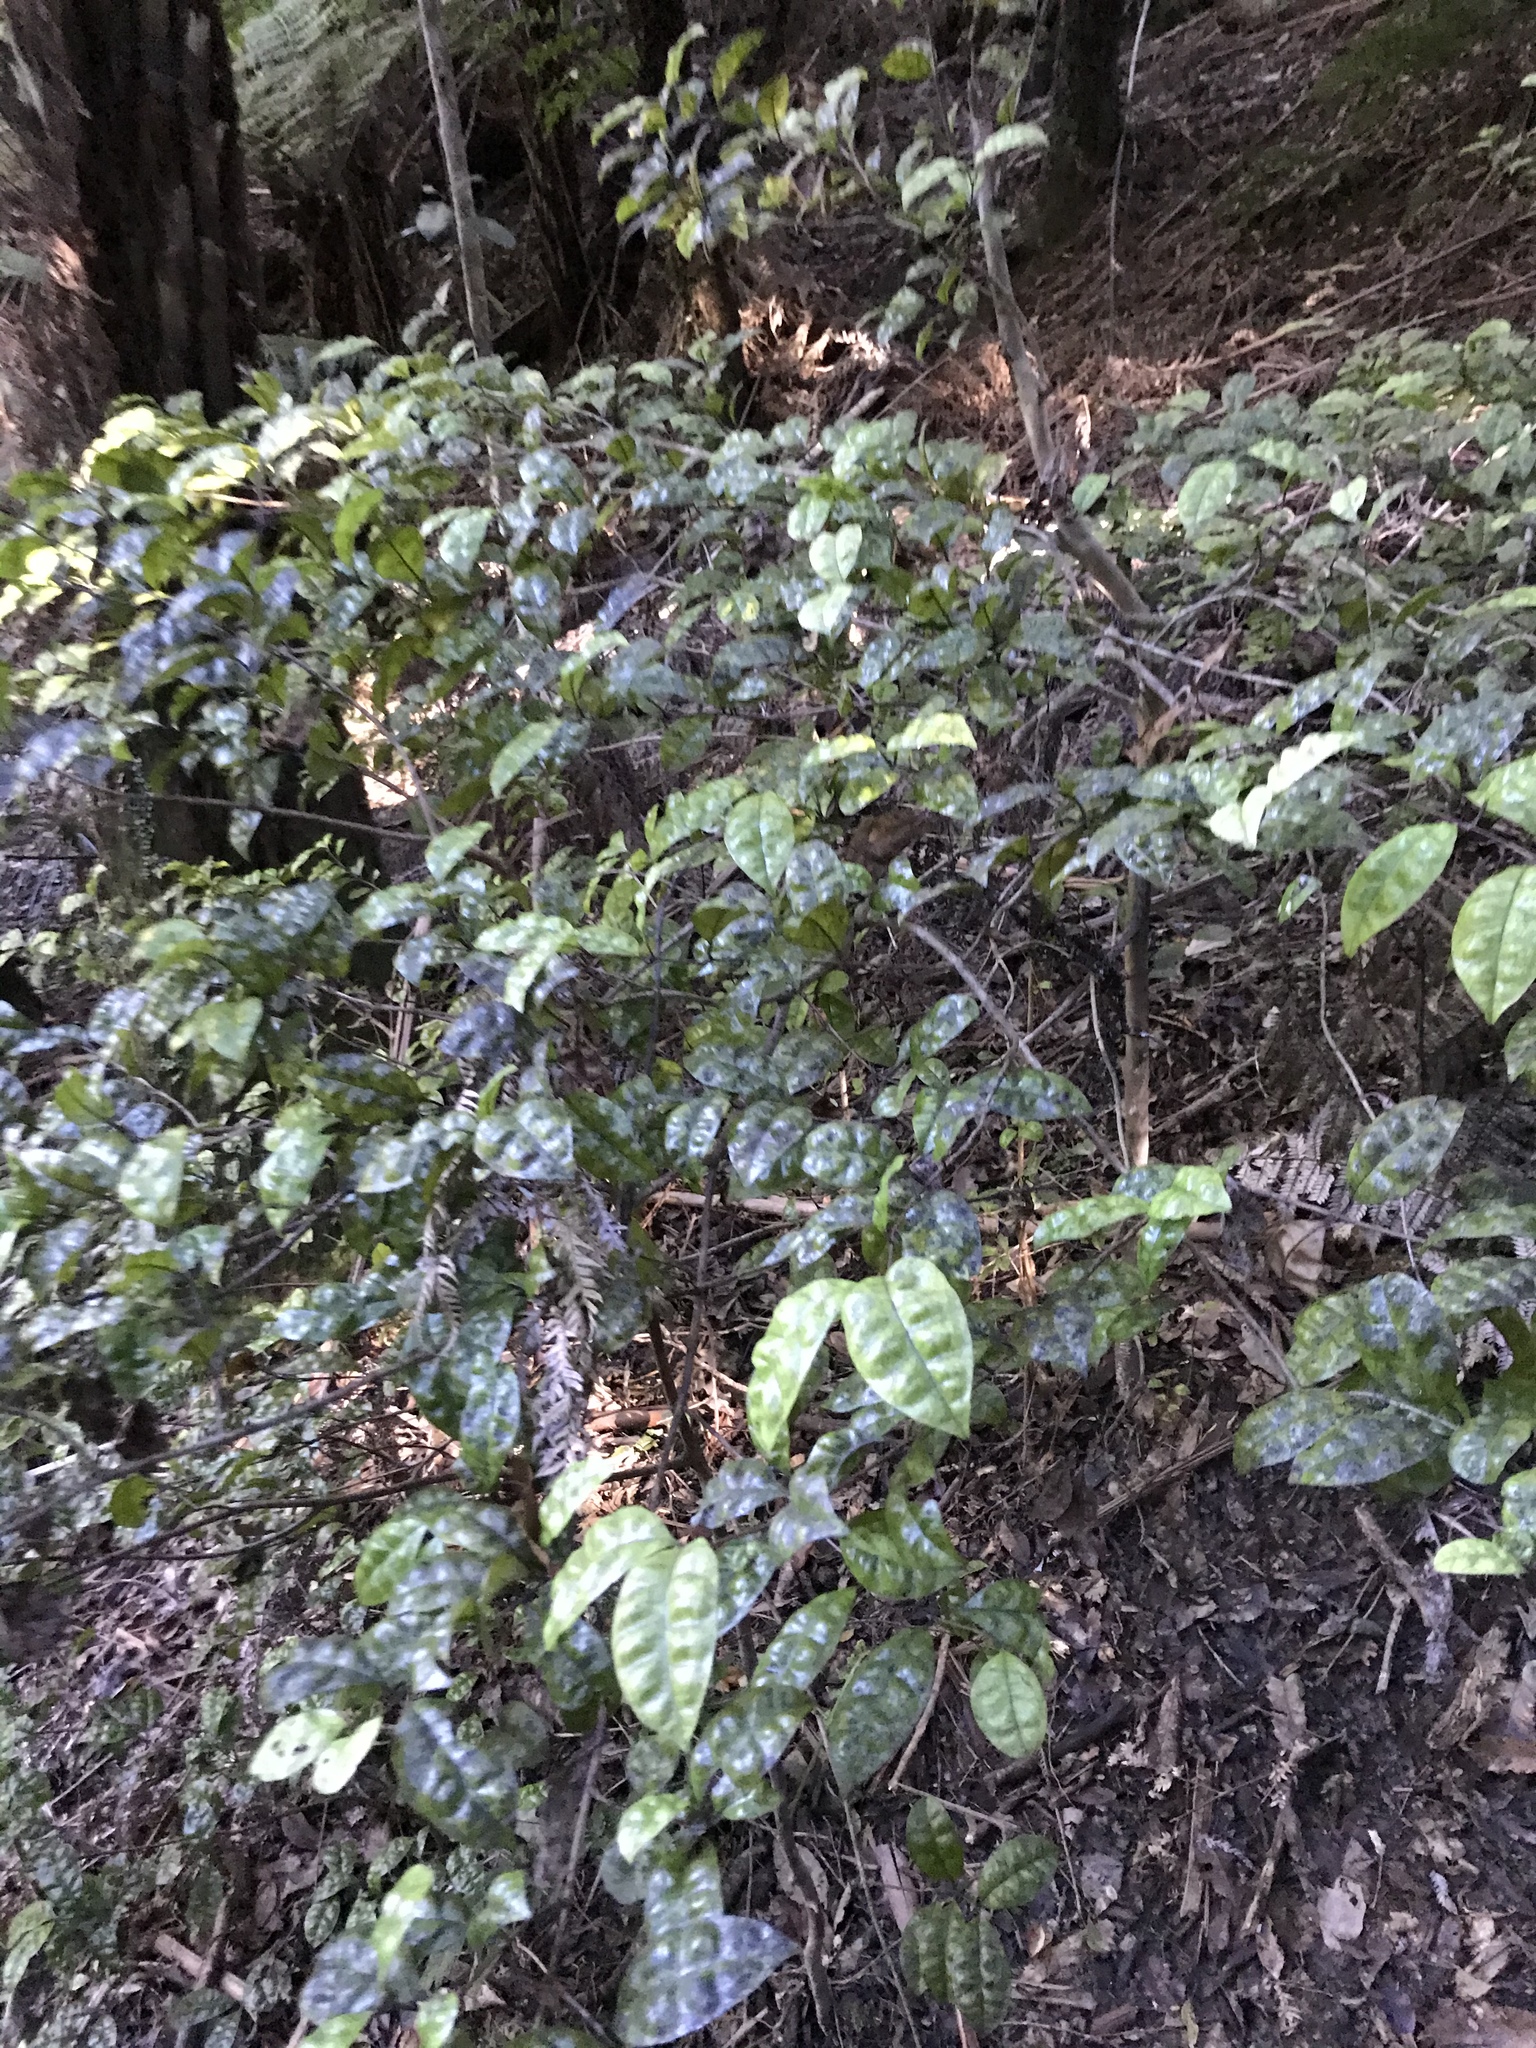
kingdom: Plantae
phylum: Tracheophyta
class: Magnoliopsida
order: Myrtales
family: Myrtaceae
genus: Lophomyrtus
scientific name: Lophomyrtus bullata
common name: Rama rama
